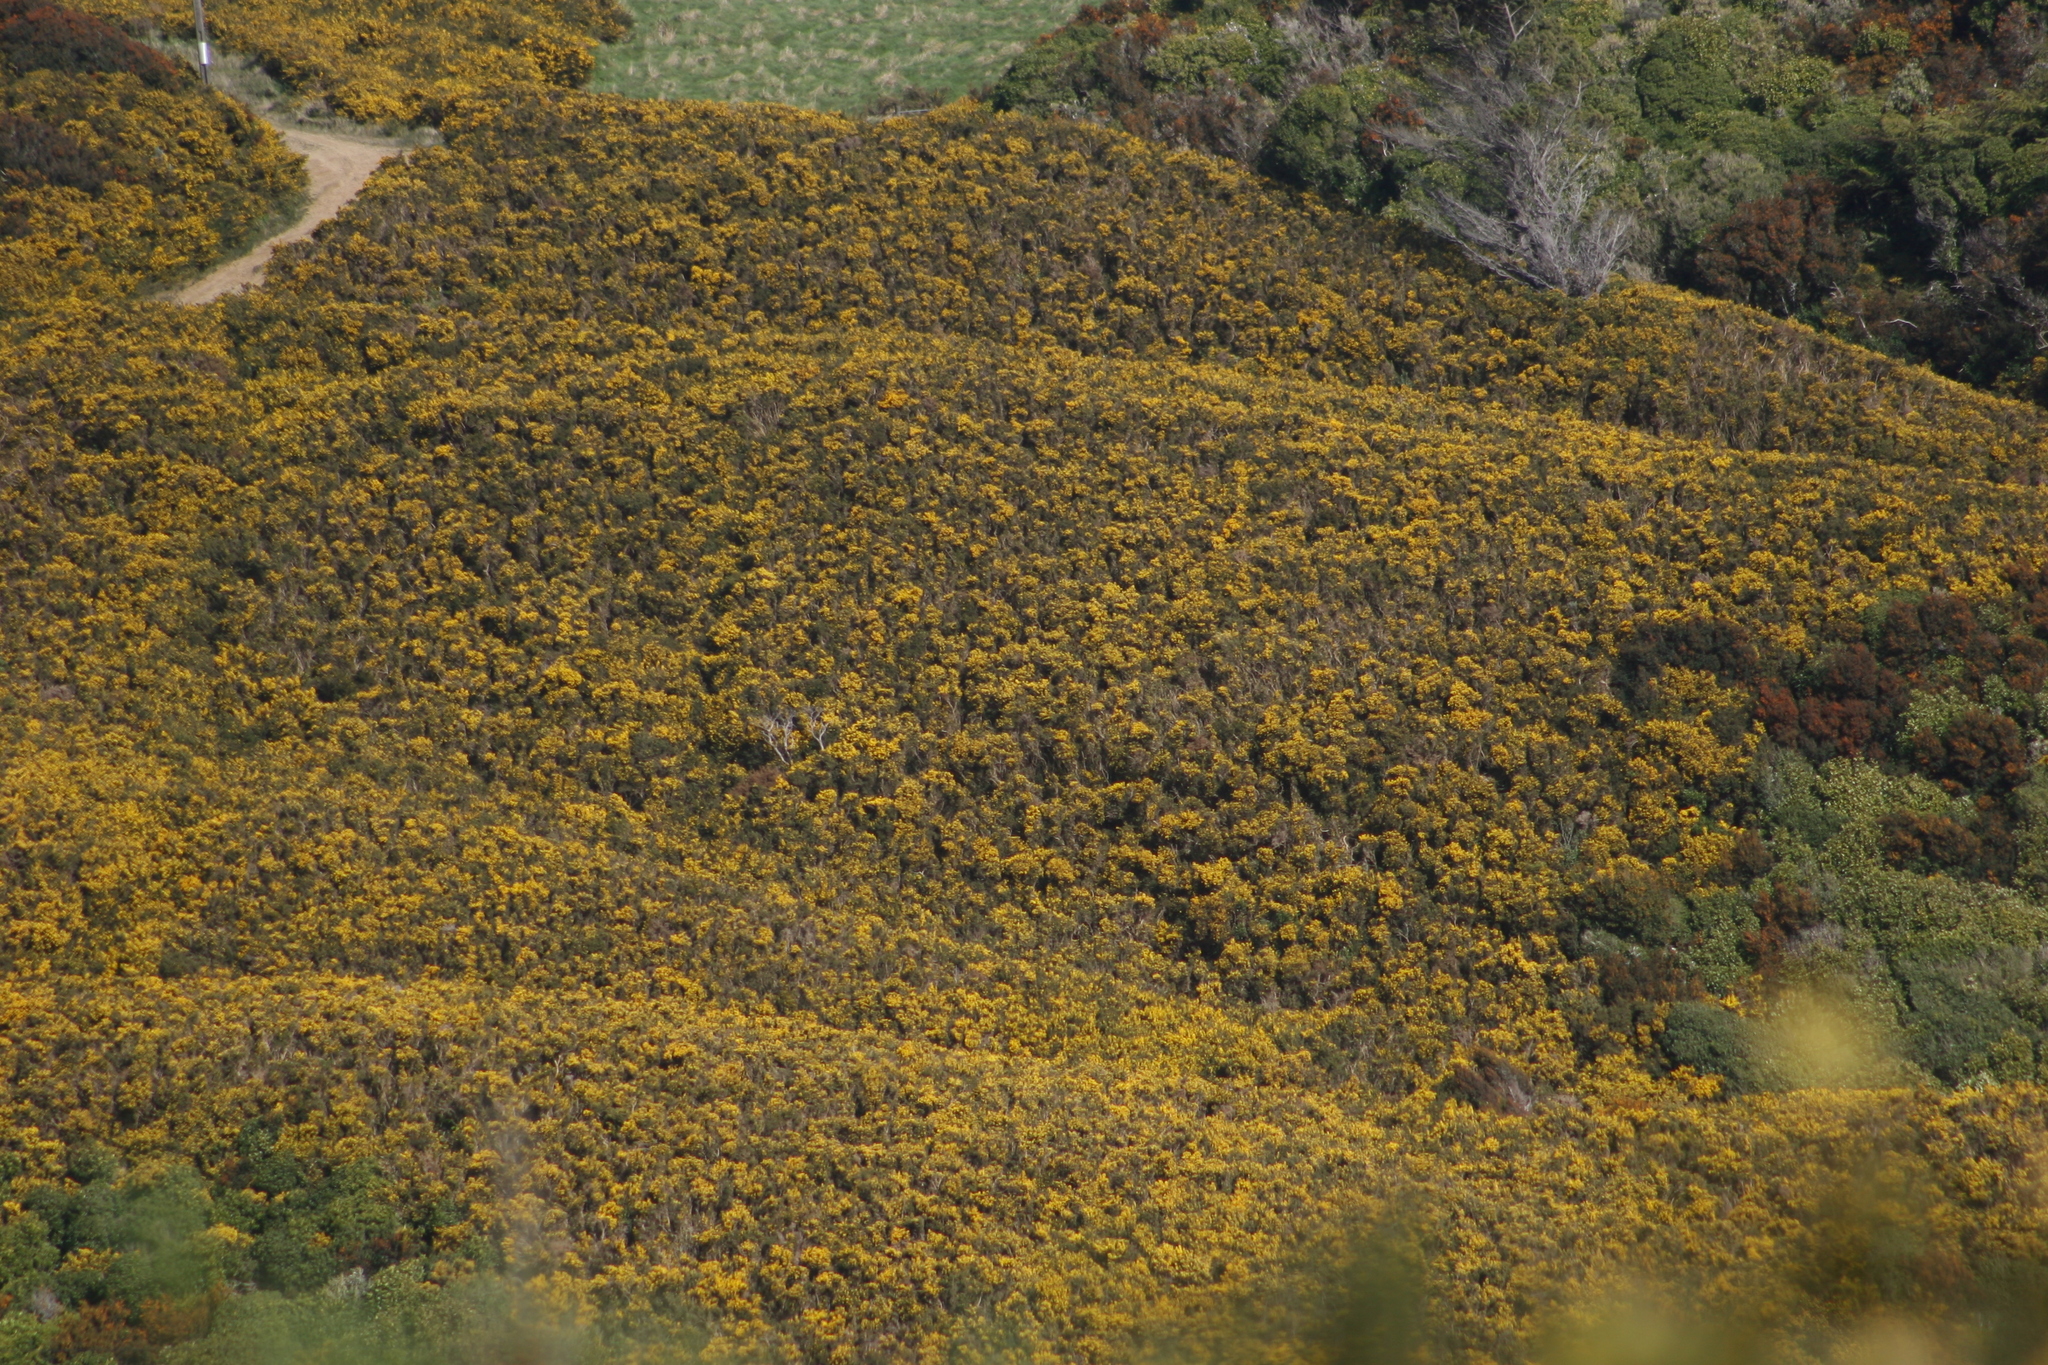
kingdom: Plantae
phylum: Tracheophyta
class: Magnoliopsida
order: Fabales
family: Fabaceae
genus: Ulex
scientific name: Ulex europaeus
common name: Common gorse
